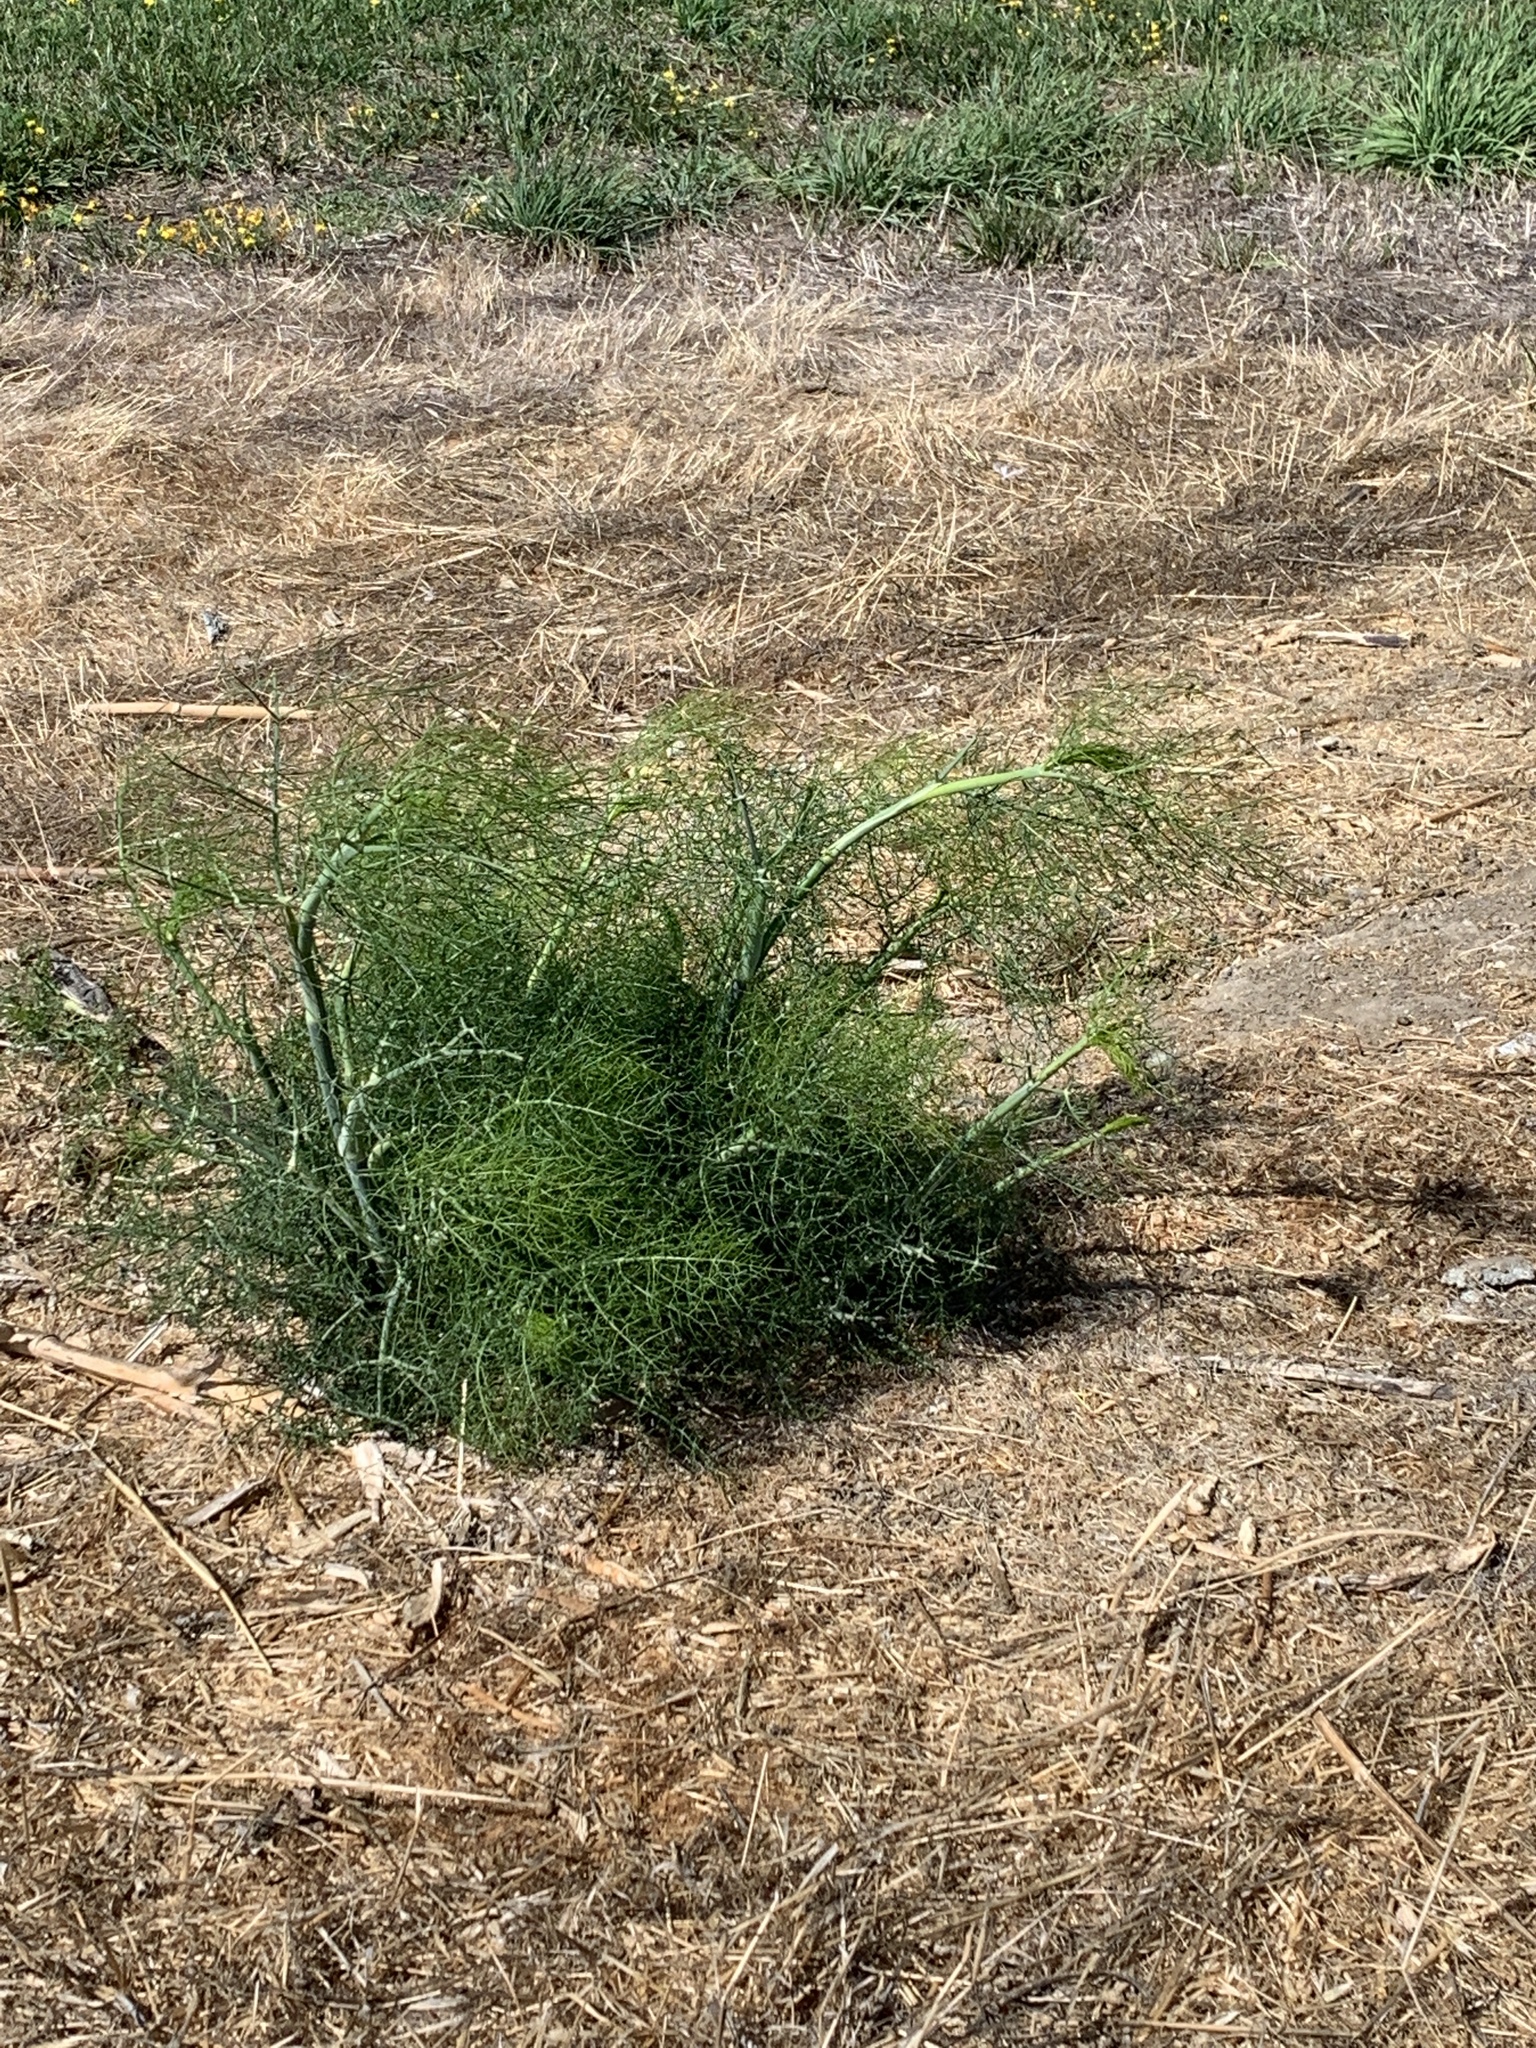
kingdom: Plantae
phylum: Tracheophyta
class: Magnoliopsida
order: Apiales
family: Apiaceae
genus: Foeniculum
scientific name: Foeniculum vulgare
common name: Fennel
